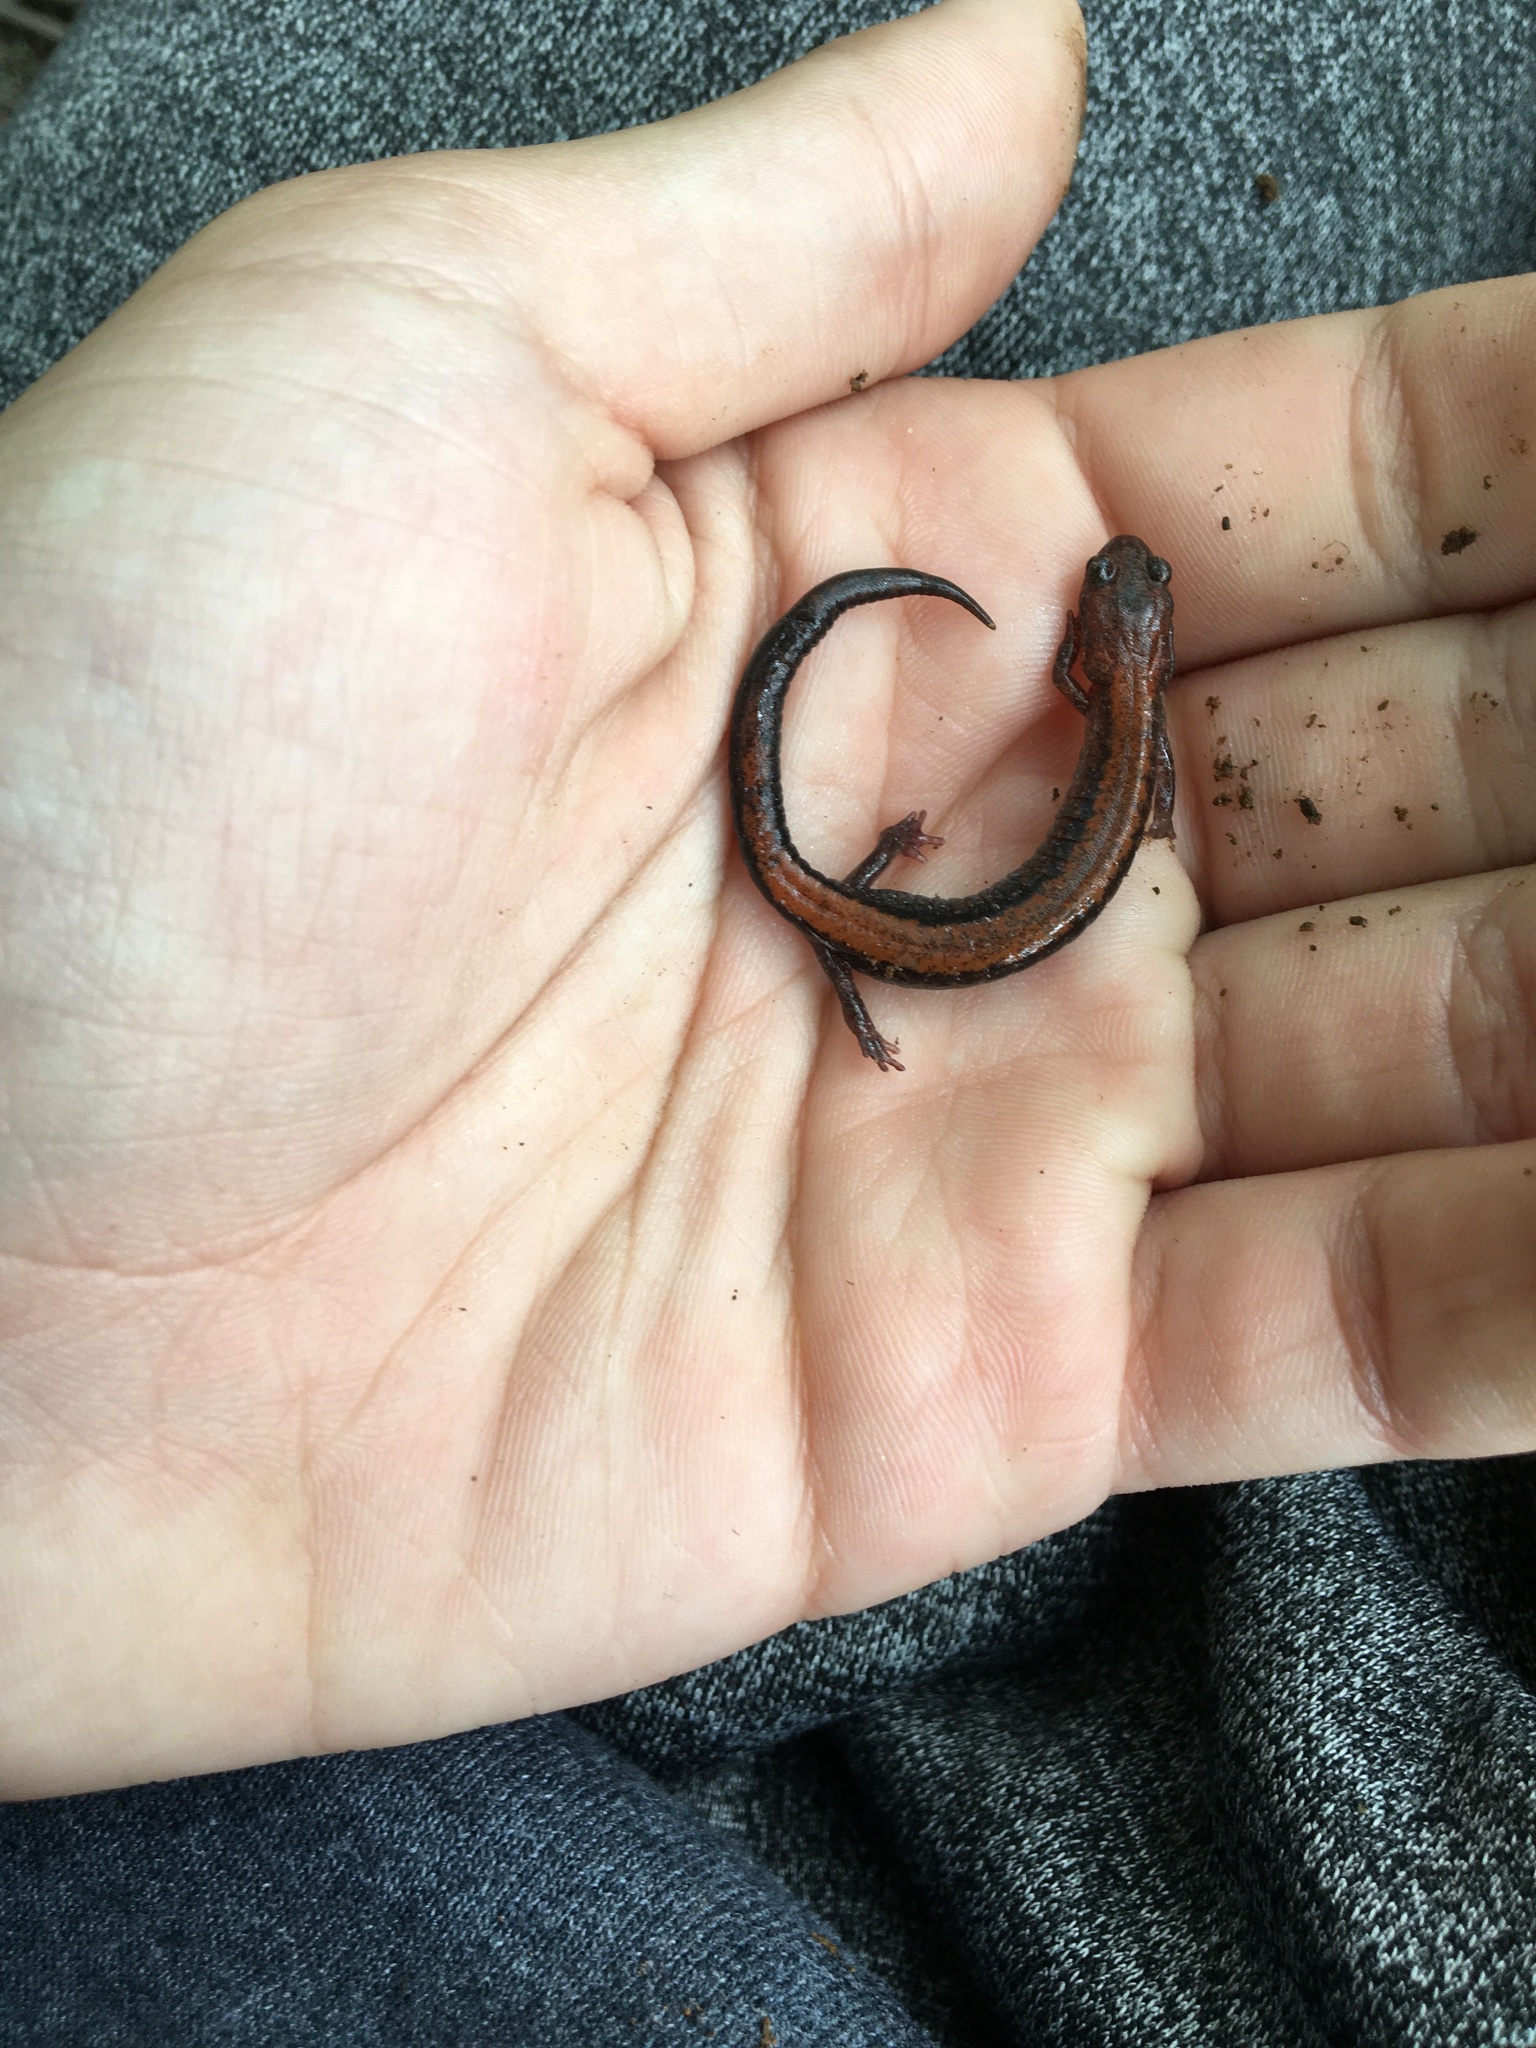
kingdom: Animalia
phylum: Chordata
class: Amphibia
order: Caudata
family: Plethodontidae
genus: Plethodon
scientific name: Plethodon cinereus
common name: Redback salamander
